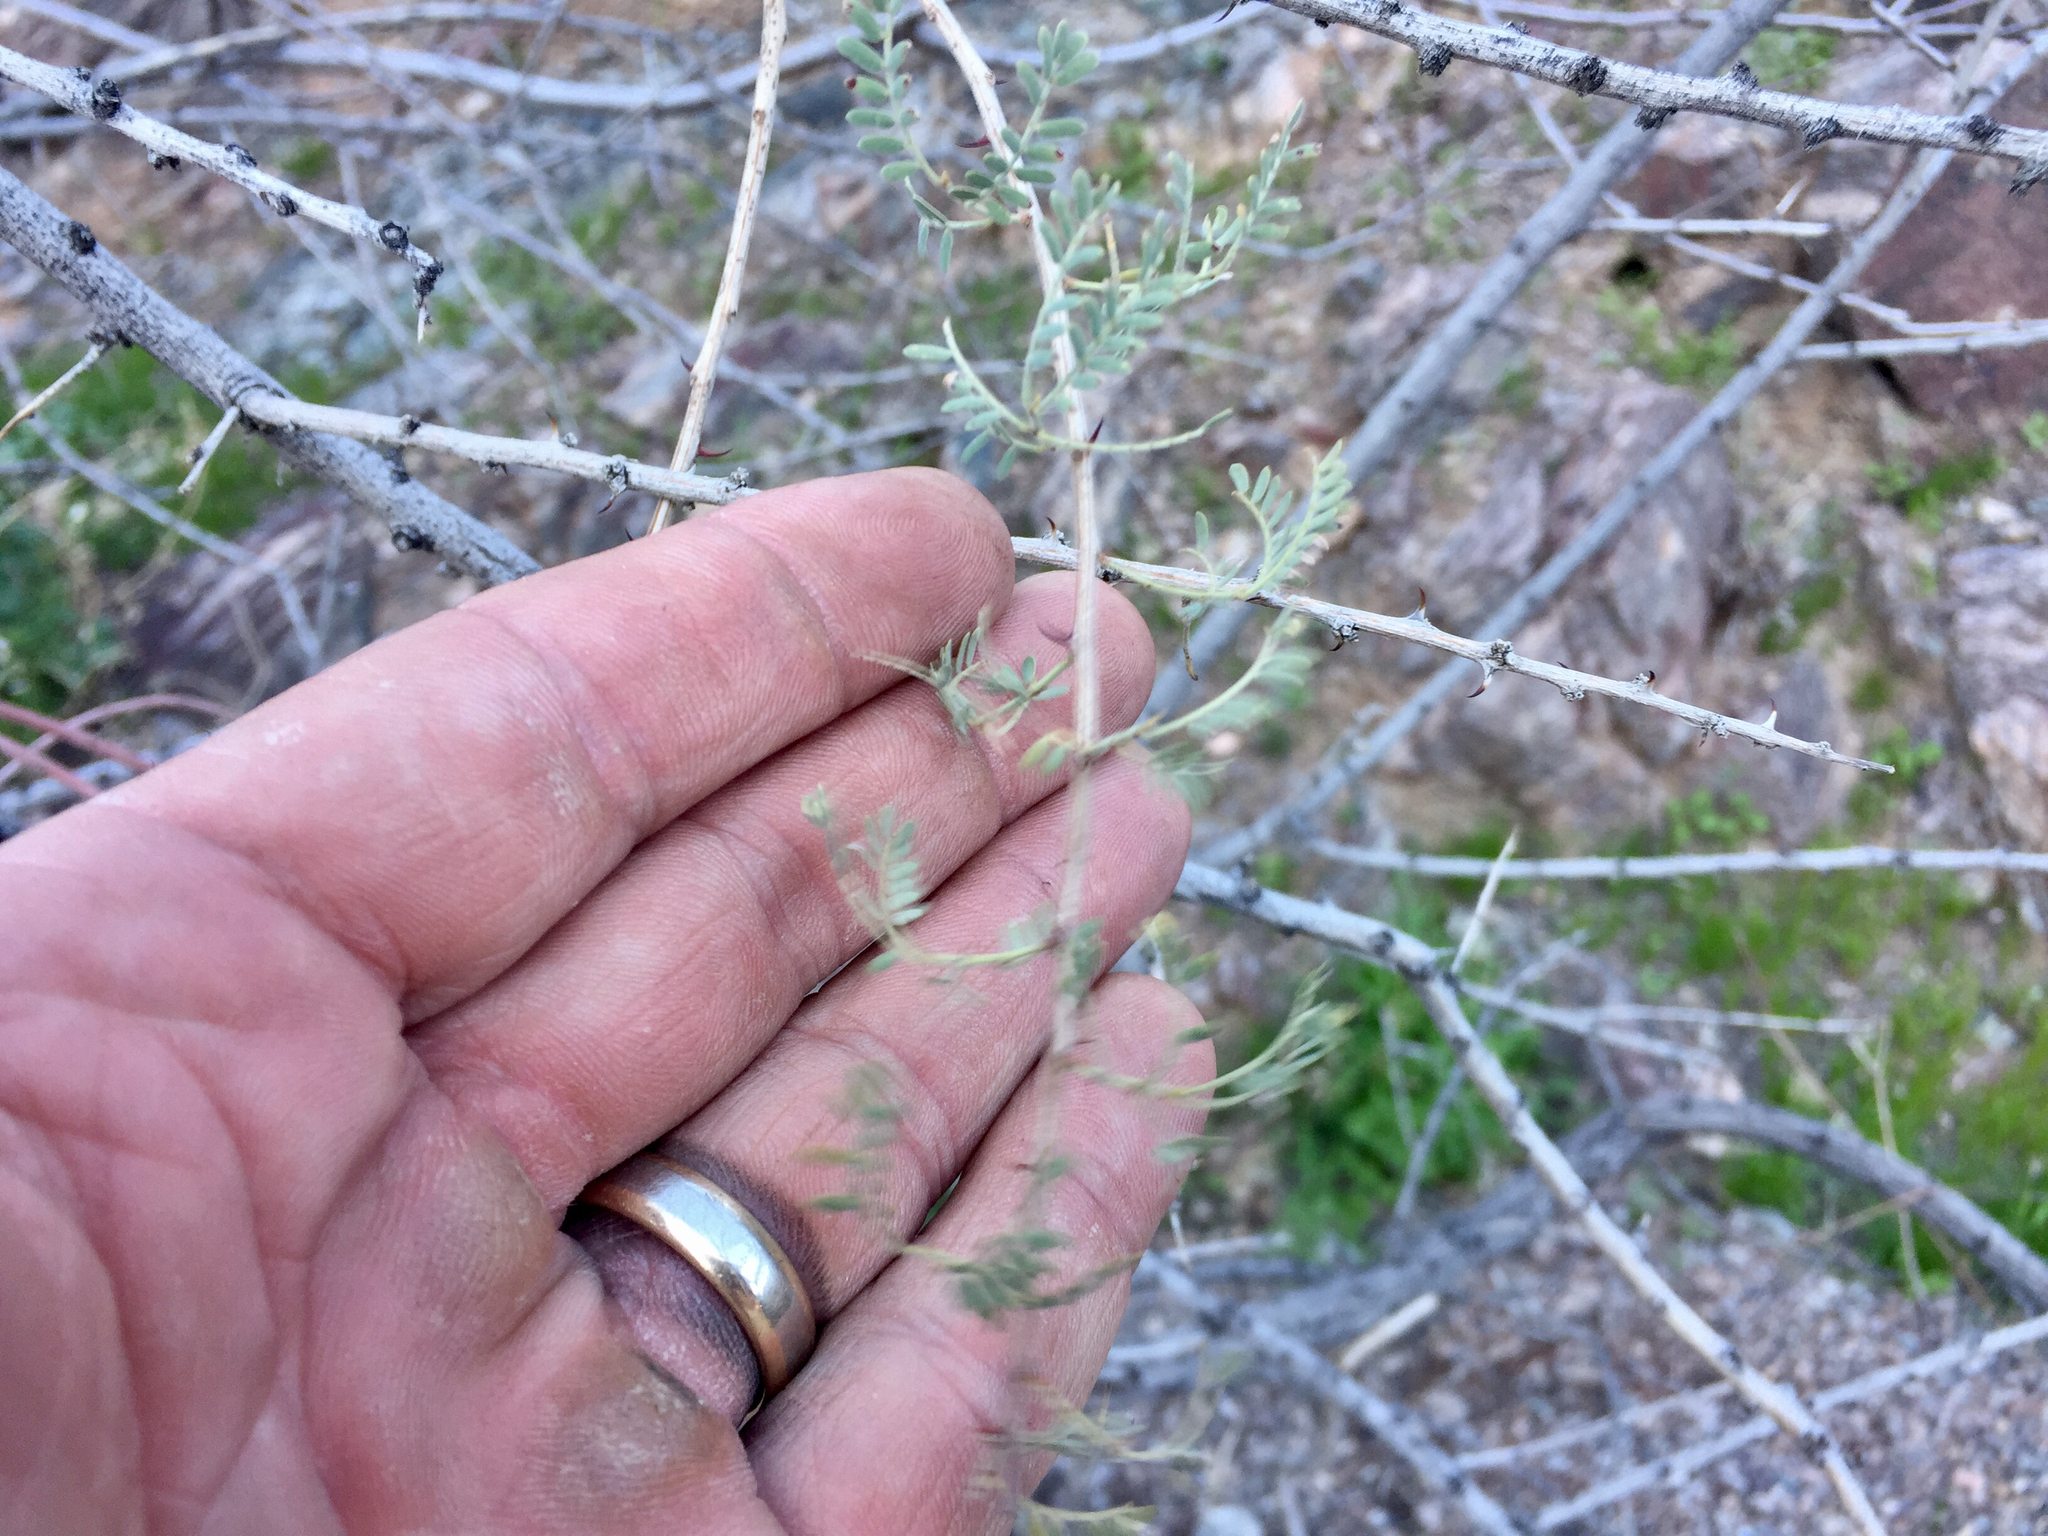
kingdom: Plantae
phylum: Tracheophyta
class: Magnoliopsida
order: Fabales
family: Fabaceae
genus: Senegalia
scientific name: Senegalia greggii
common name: Texas-mimosa
